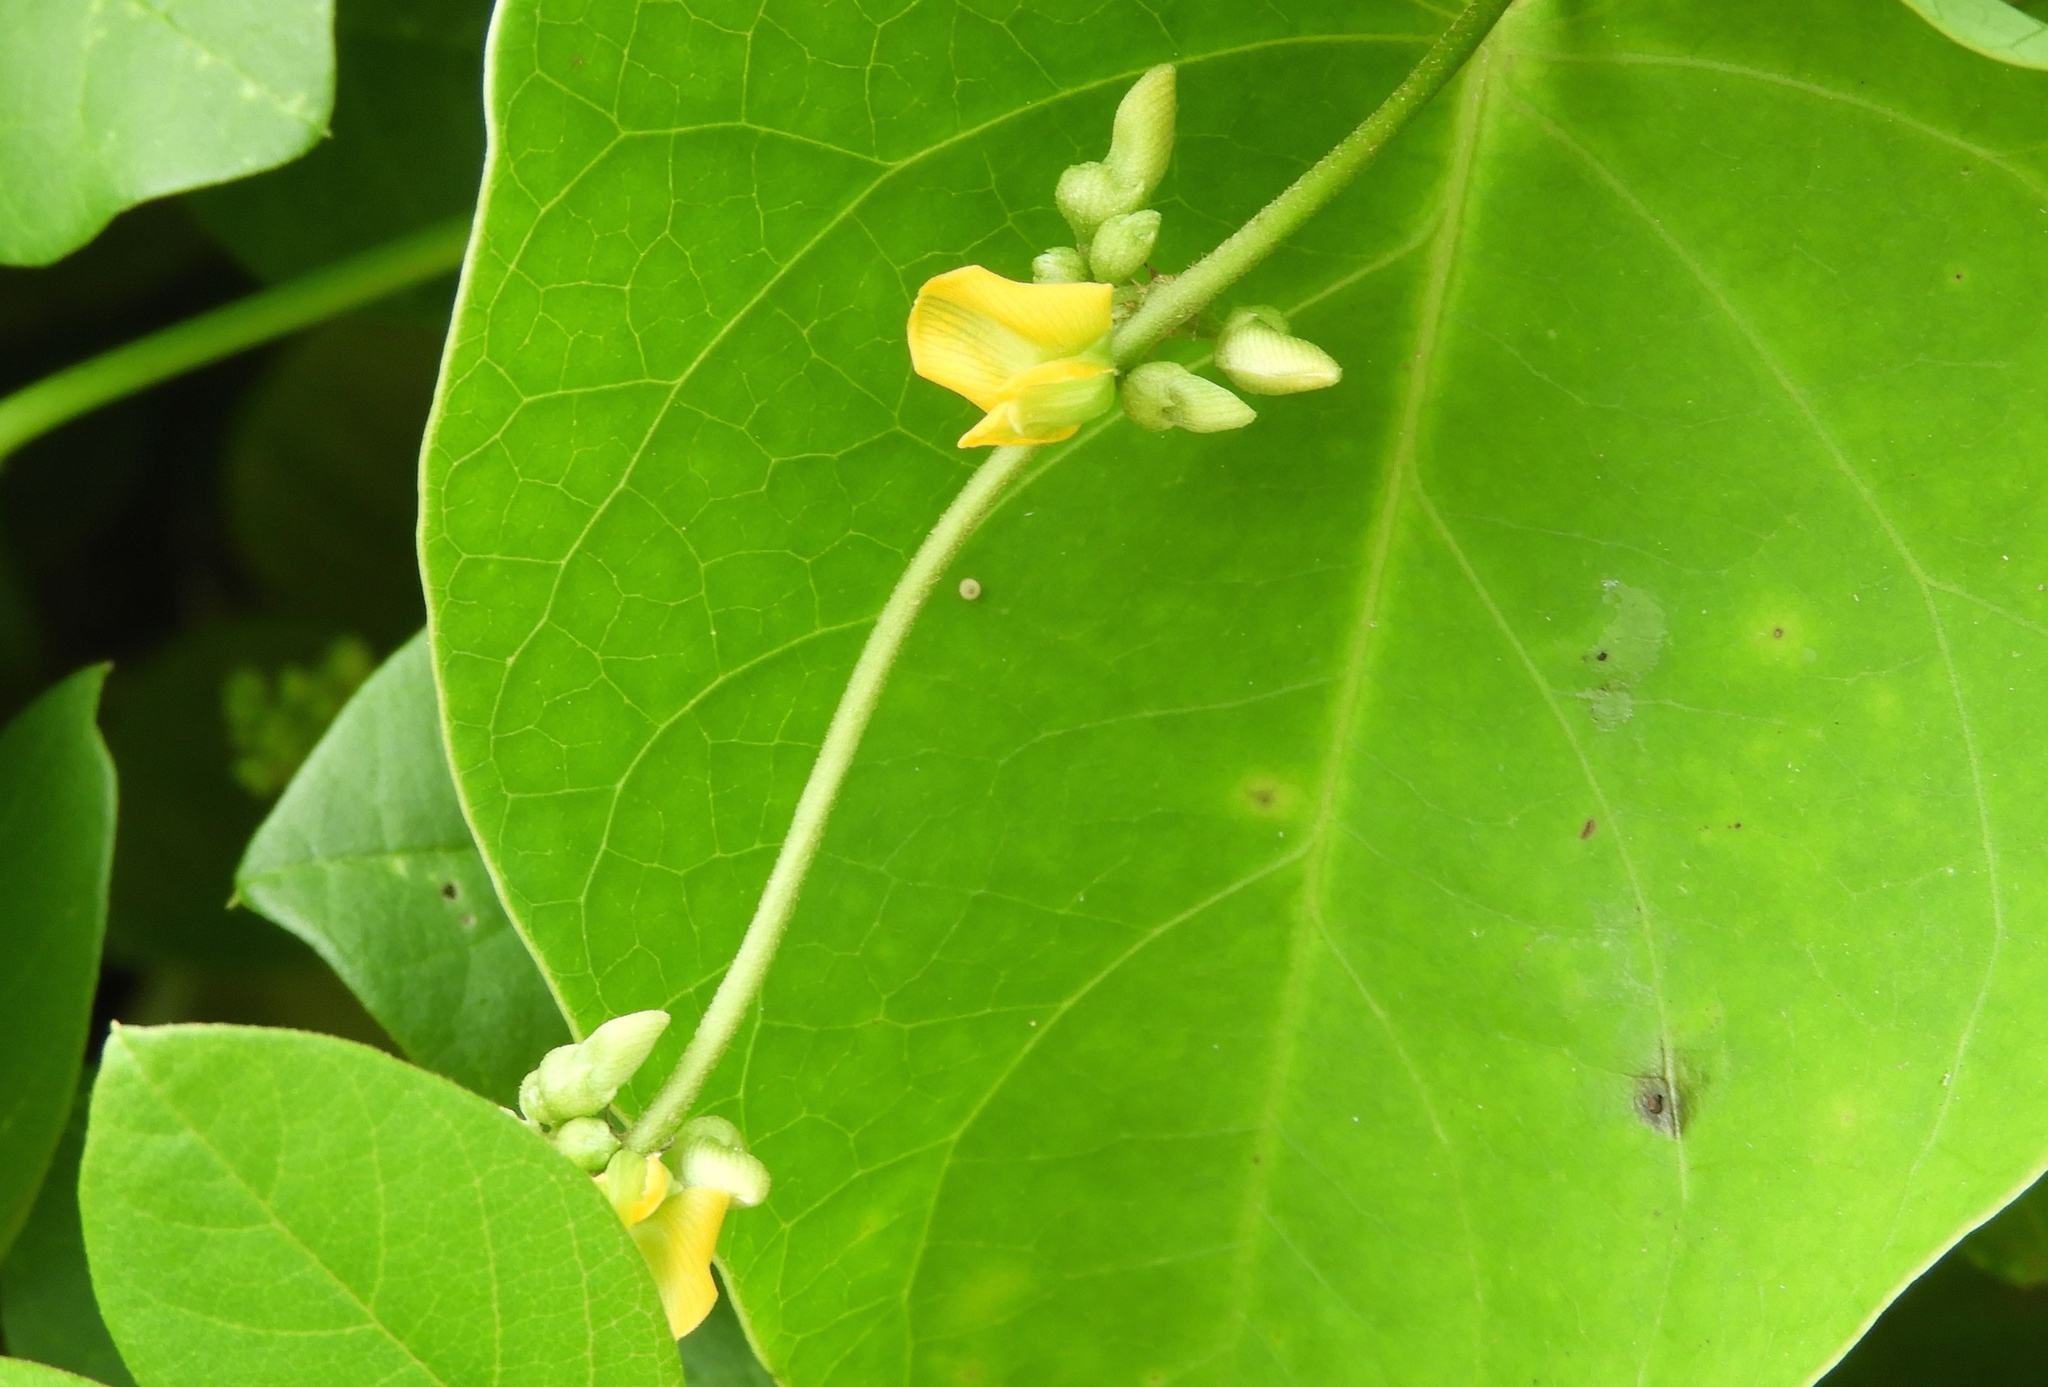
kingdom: Plantae
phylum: Tracheophyta
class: Magnoliopsida
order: Fabales
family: Fabaceae
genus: Rhynchosia
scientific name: Rhynchosia minima
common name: Least snoutbean
